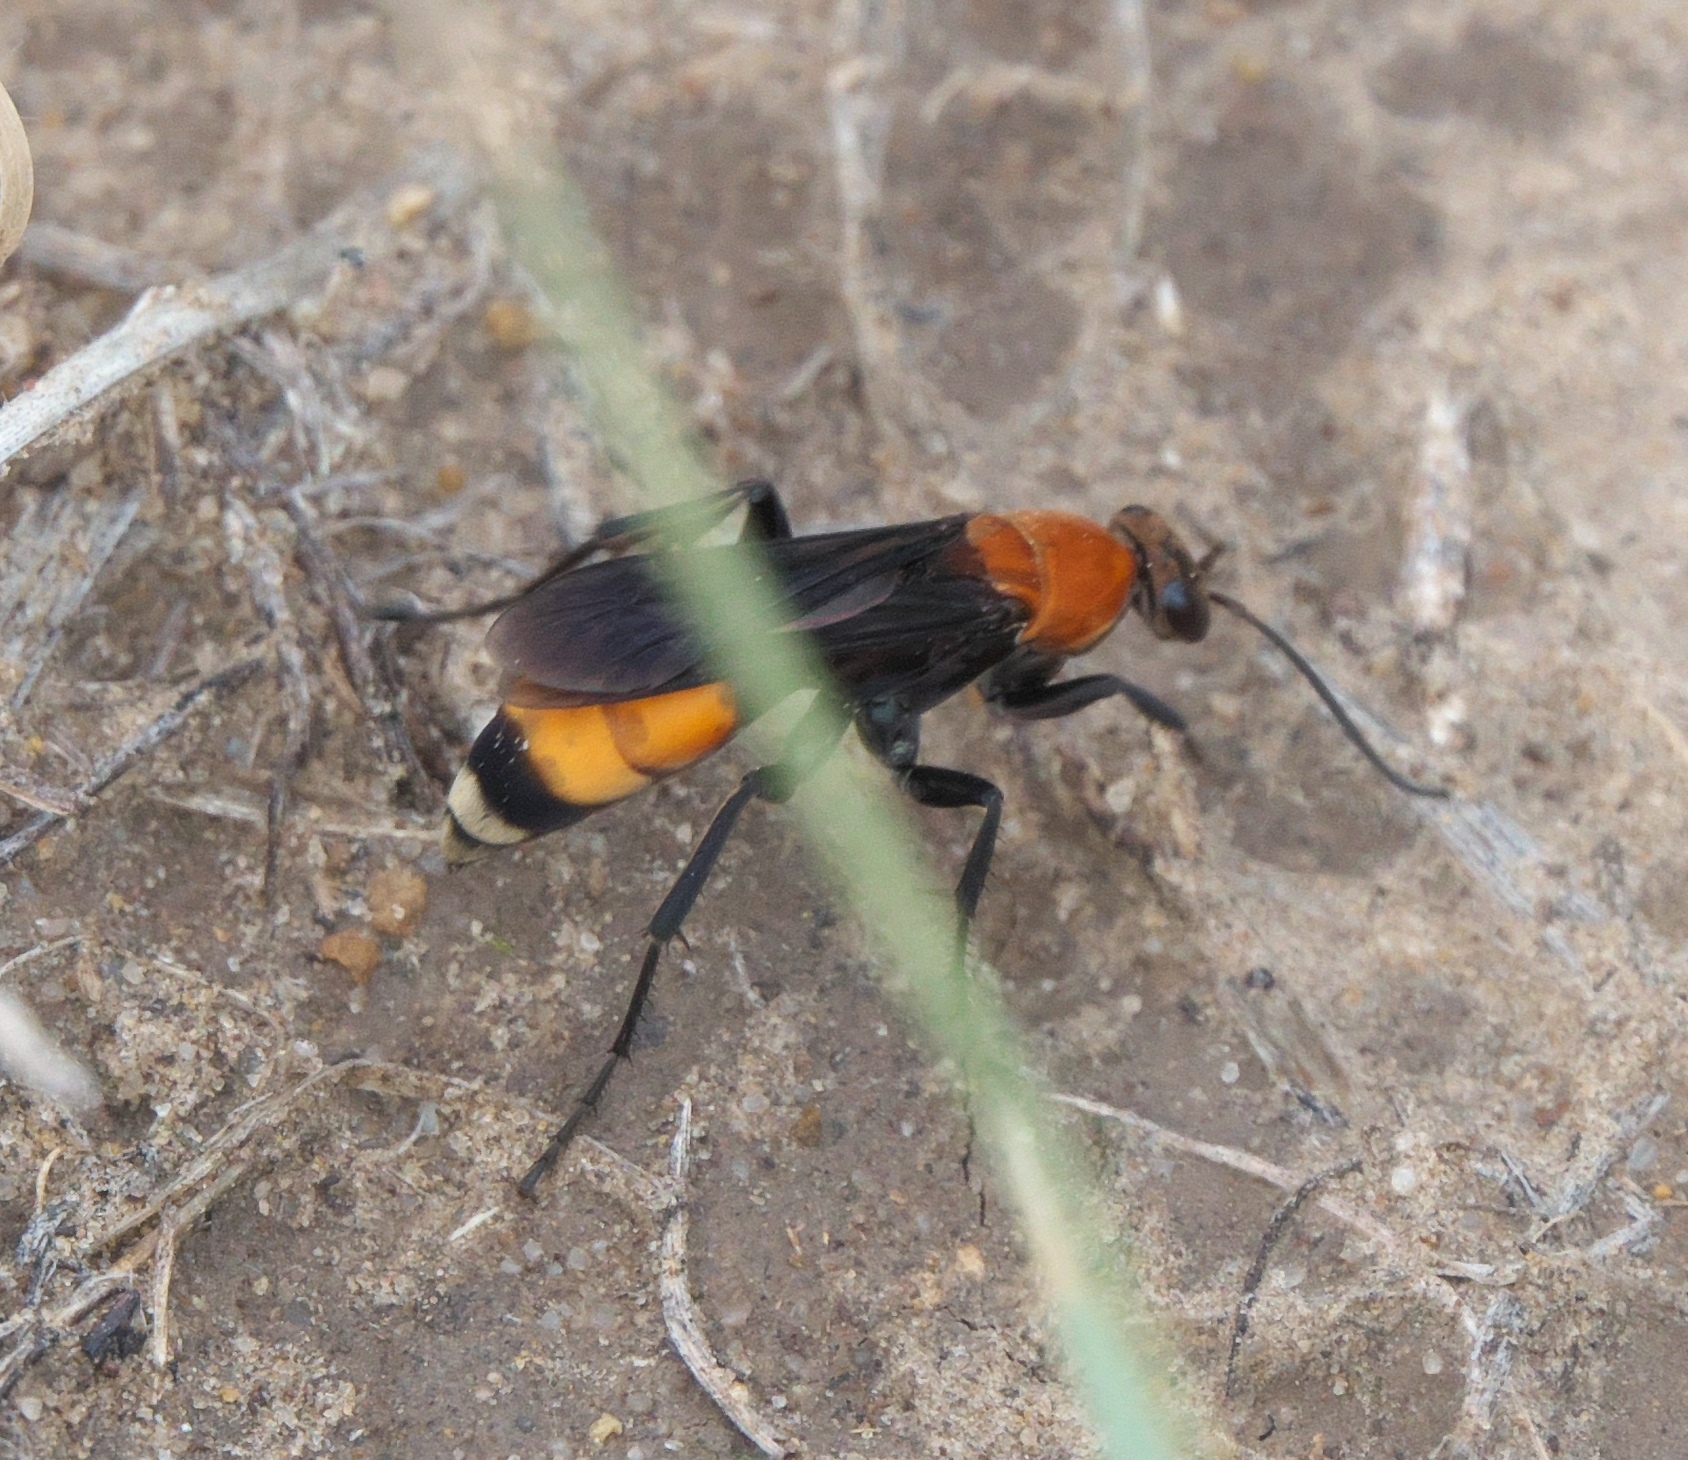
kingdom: Animalia
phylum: Arthropoda
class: Insecta
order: Hymenoptera
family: Pompilidae
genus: Psorthaspis
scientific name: Psorthaspis sanguinea
